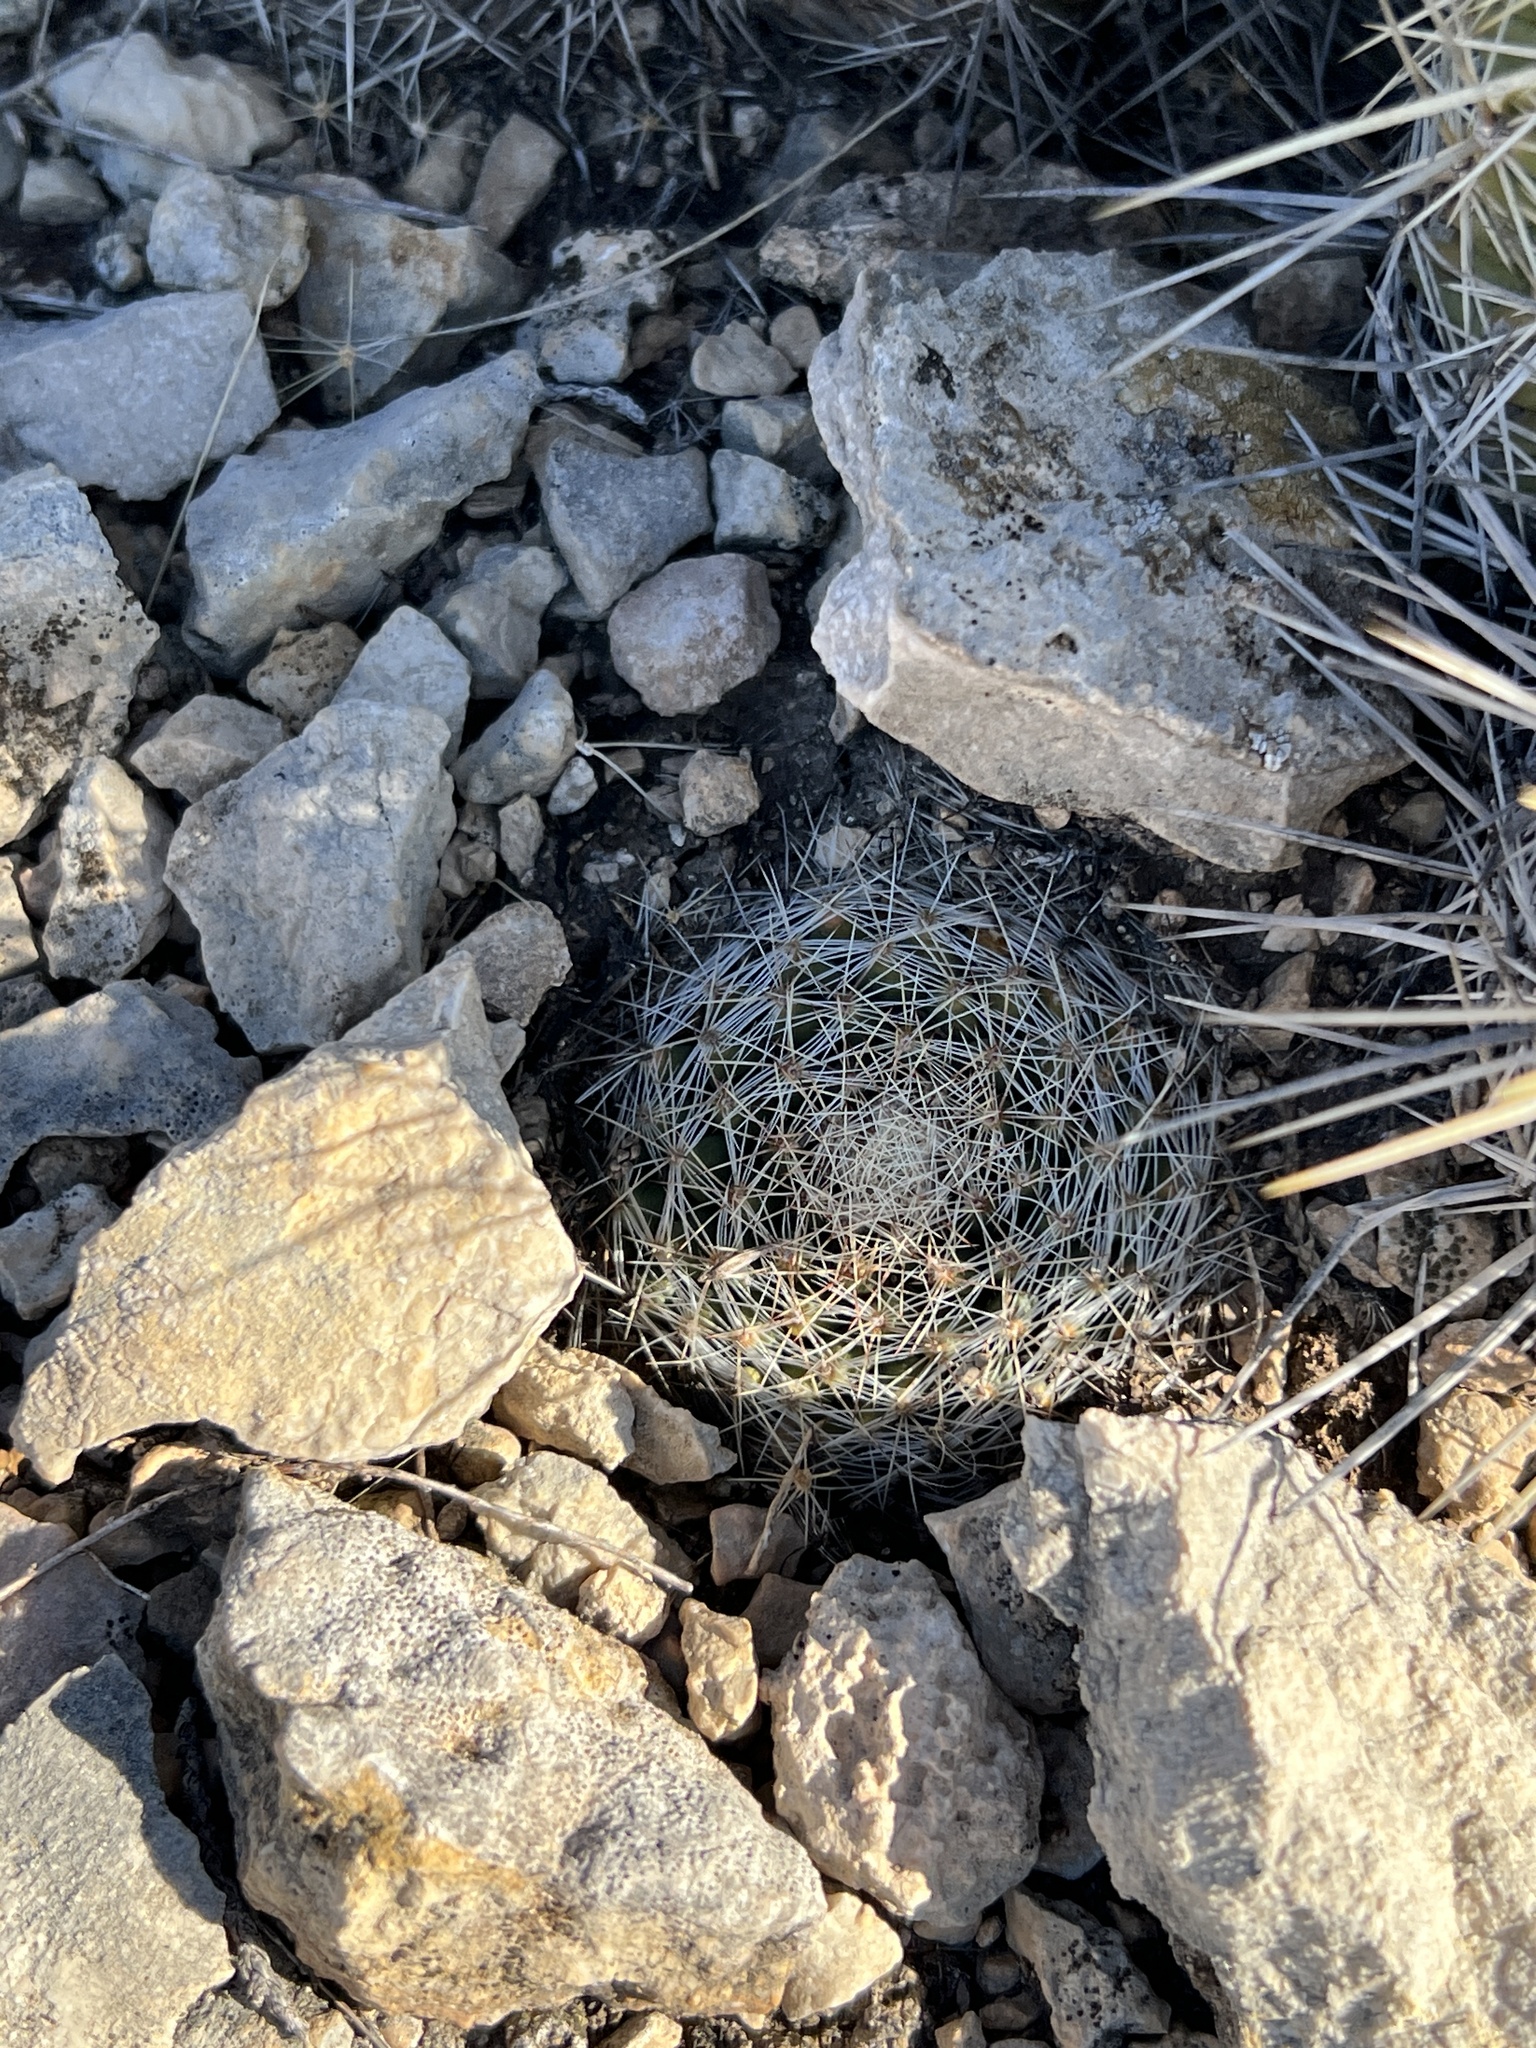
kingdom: Plantae
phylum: Tracheophyta
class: Magnoliopsida
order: Caryophyllales
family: Cactaceae
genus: Mammillaria
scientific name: Mammillaria heyderi
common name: Little nipple cactus
